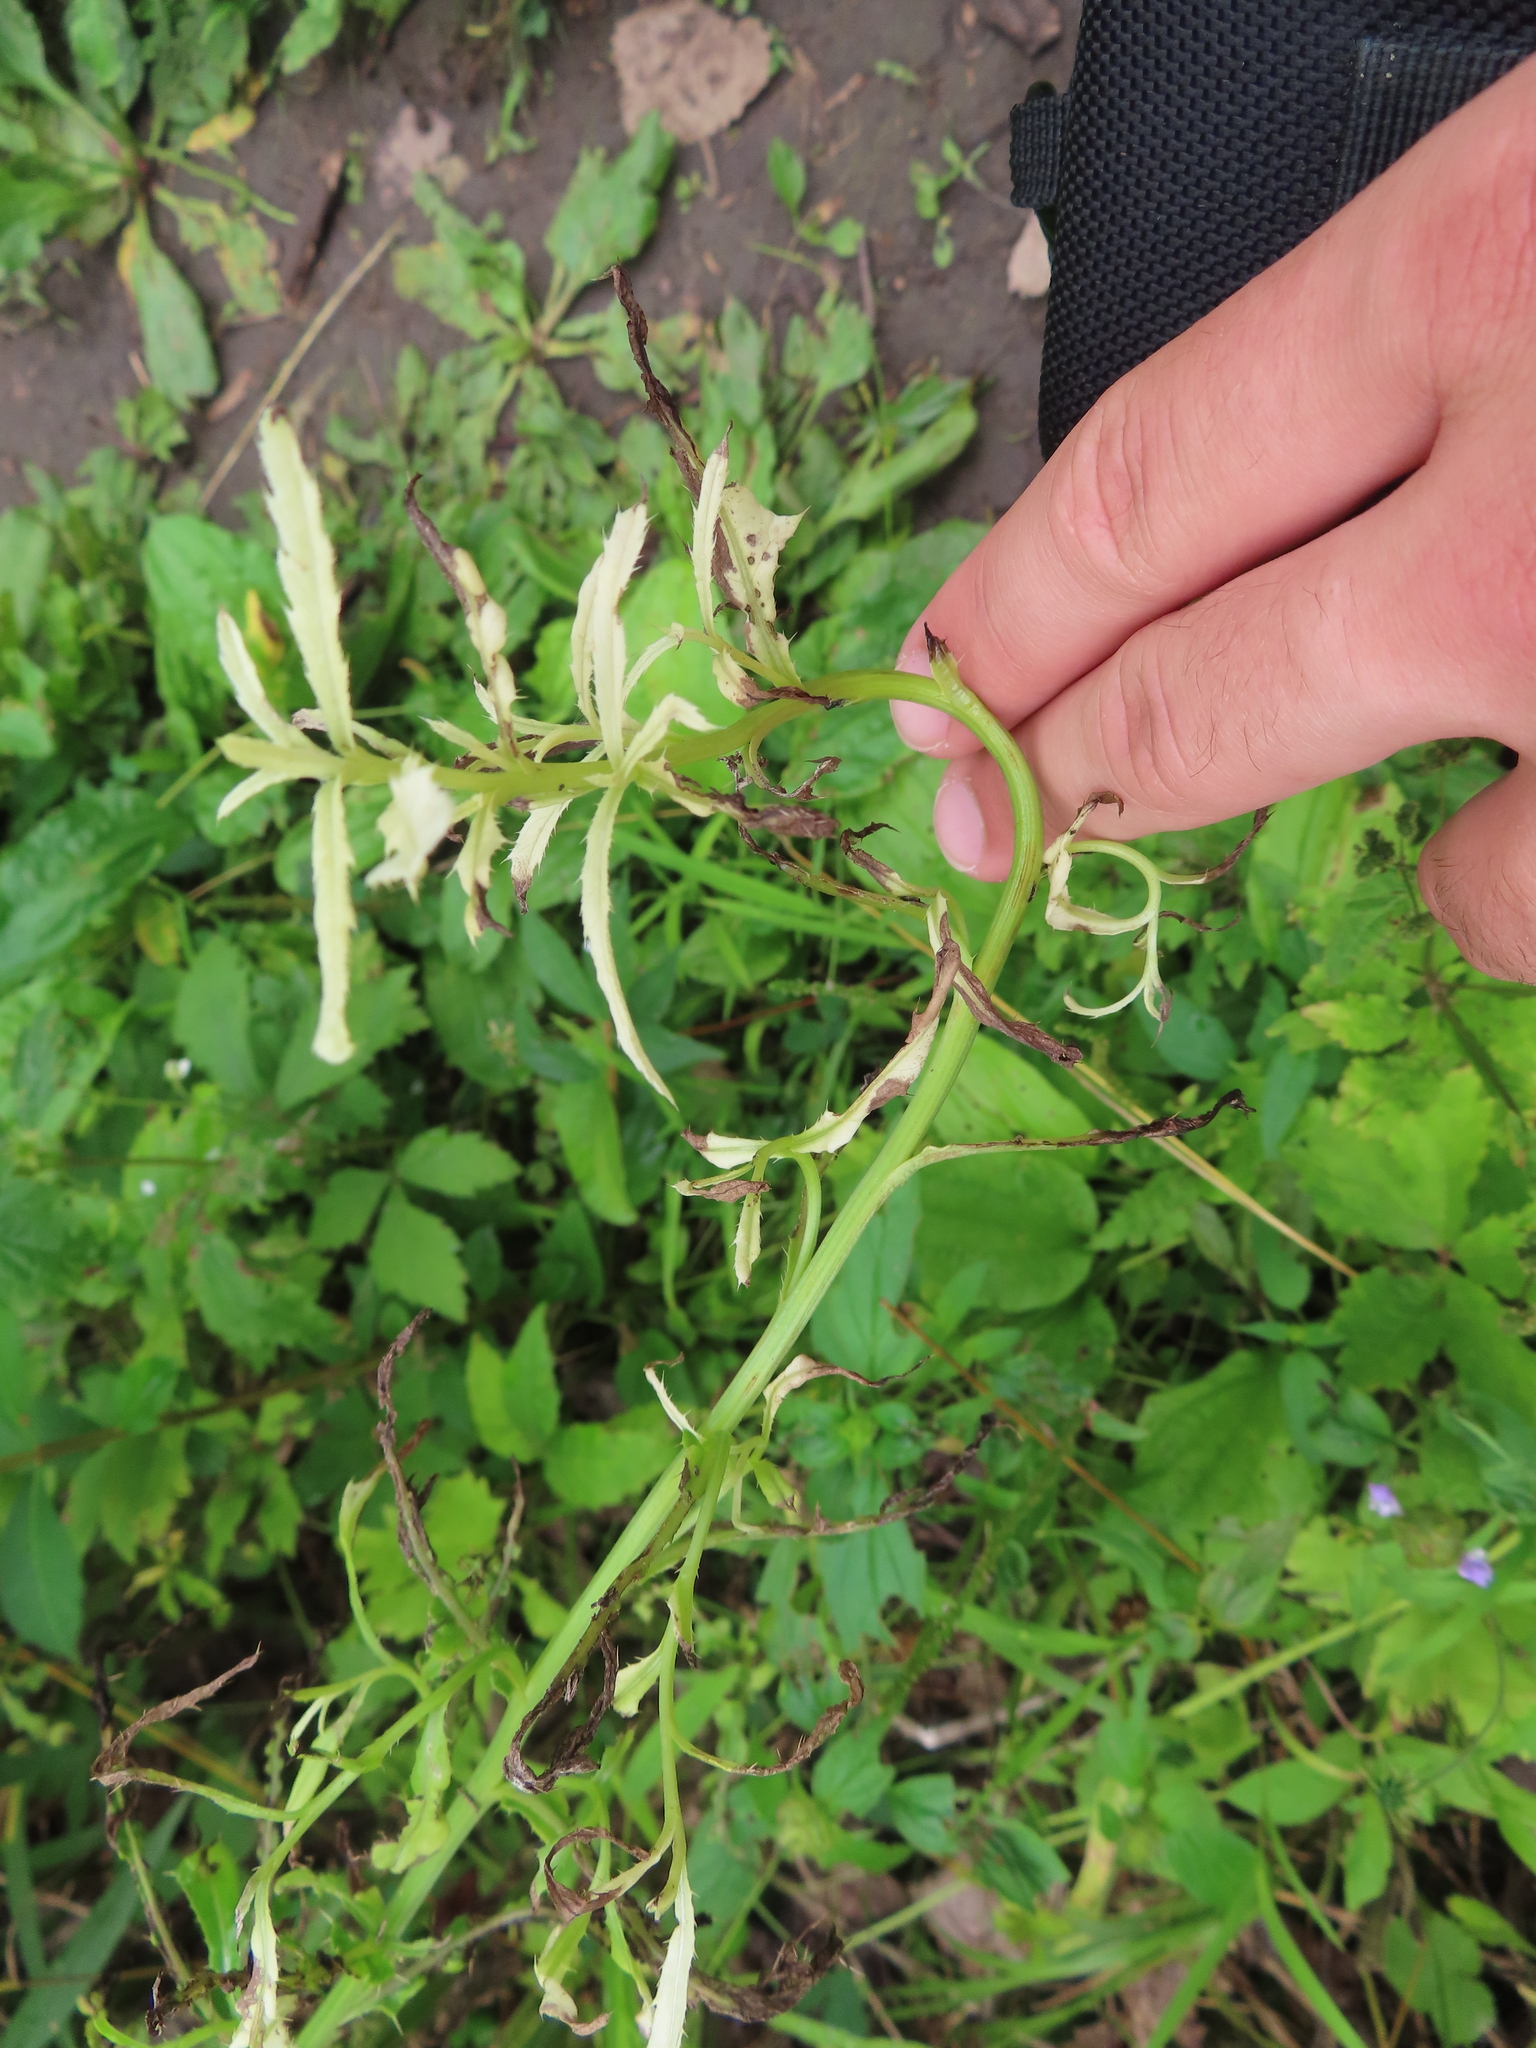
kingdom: Plantae
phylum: Tracheophyta
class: Magnoliopsida
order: Asterales
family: Asteraceae
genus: Cirsium
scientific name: Cirsium arvense
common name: Creeping thistle
